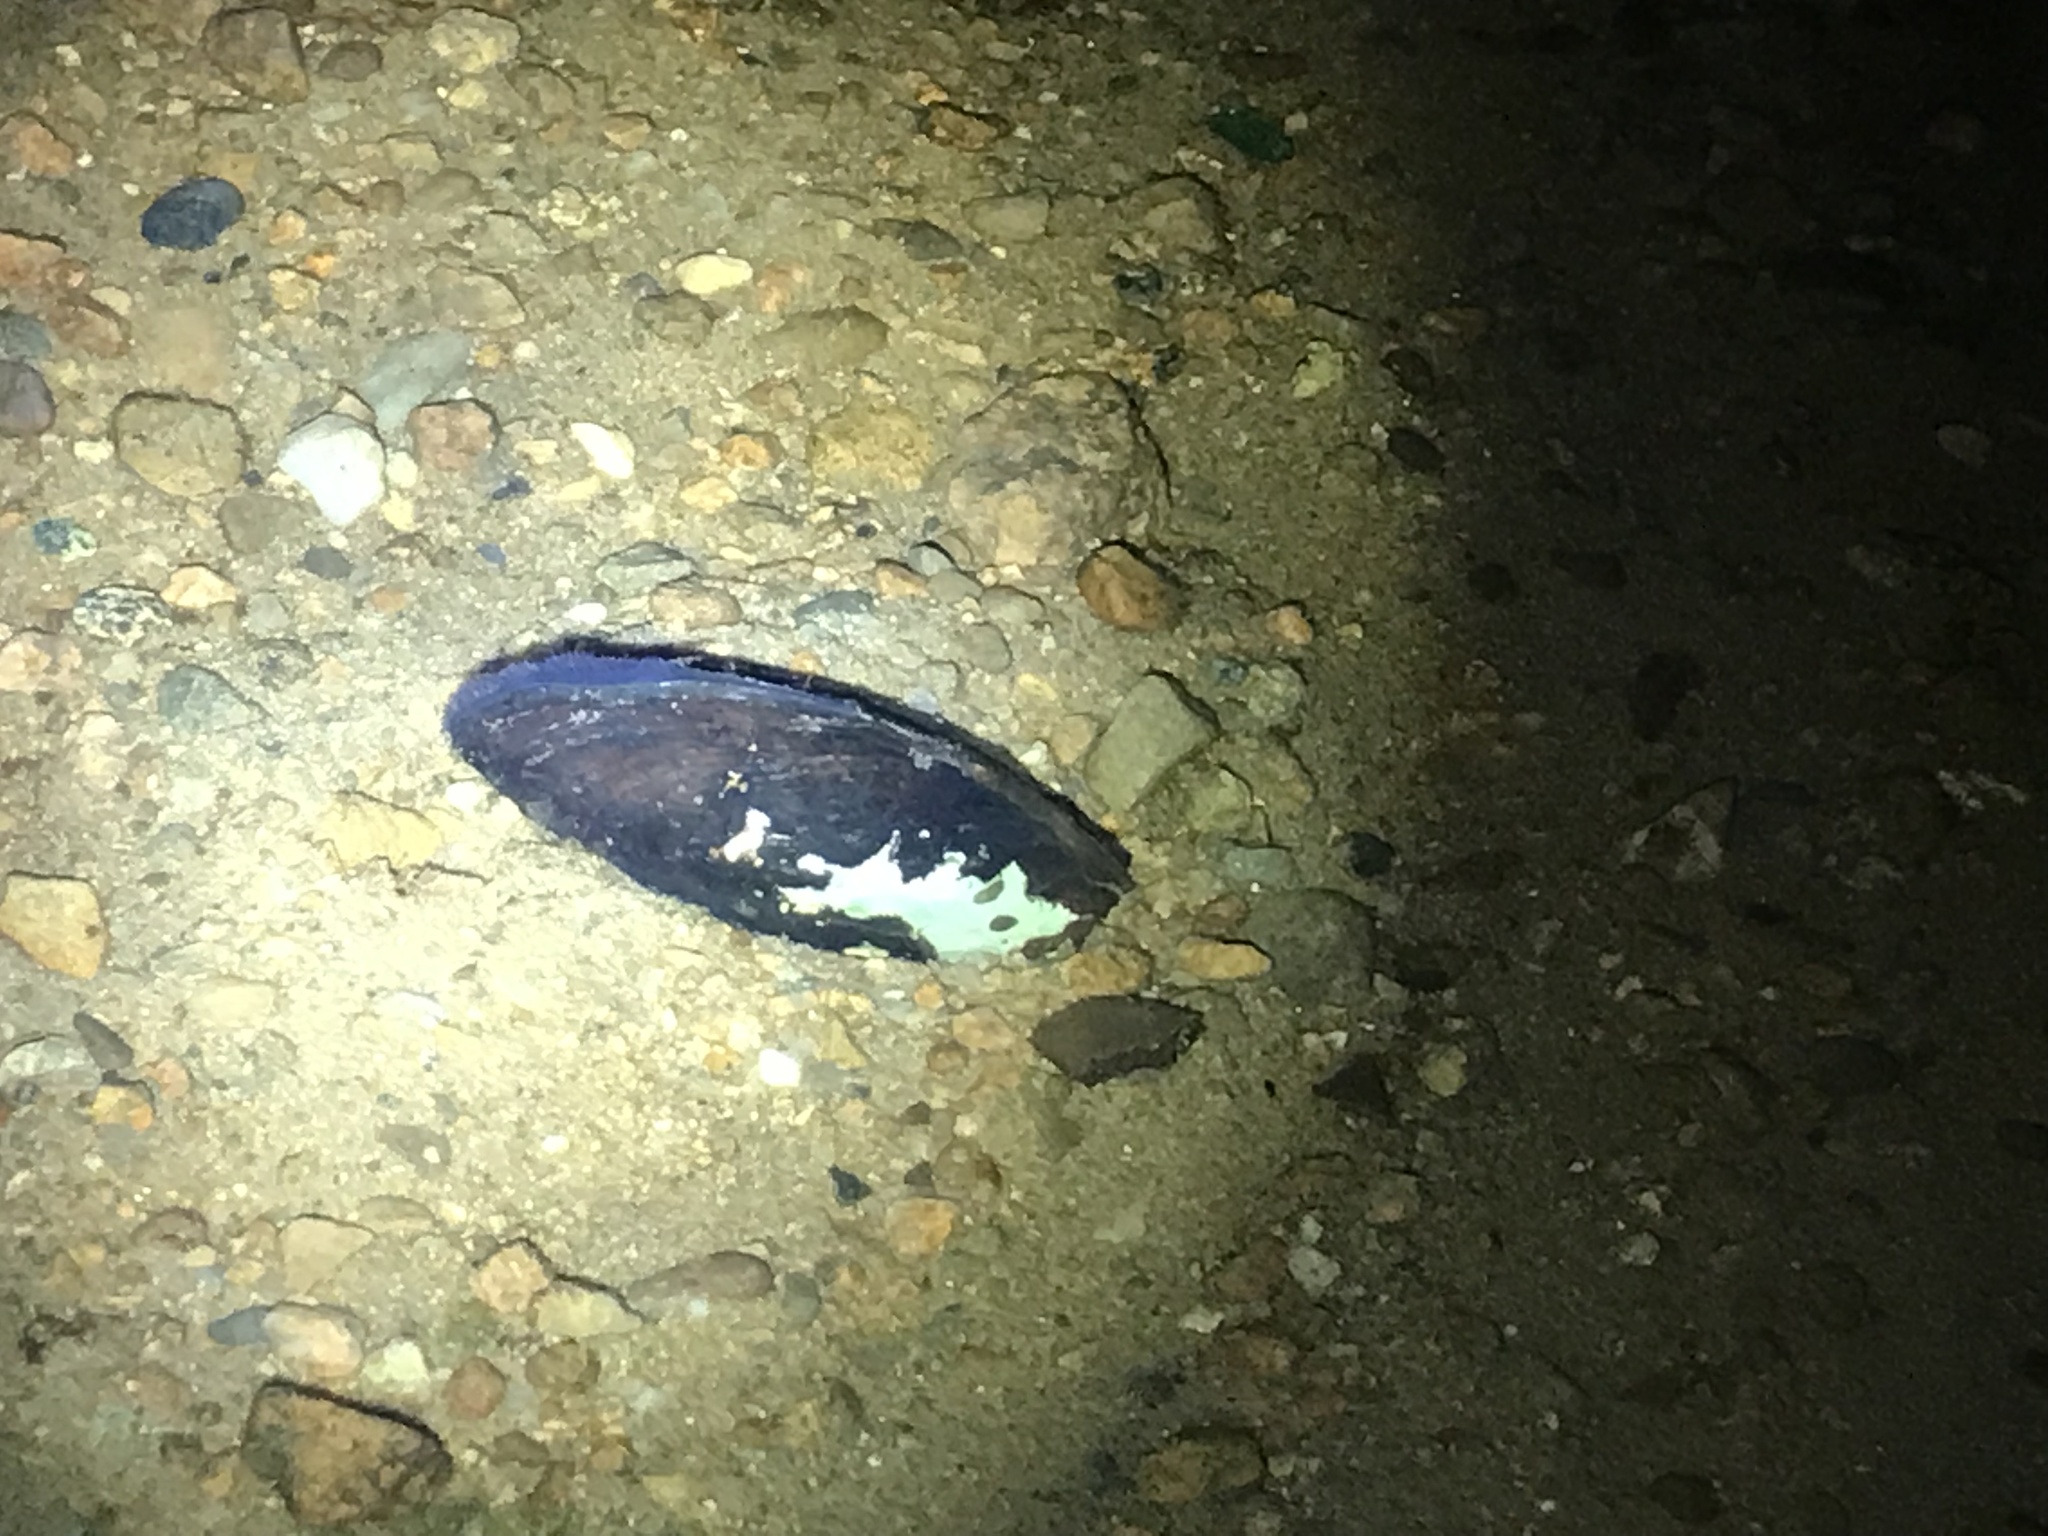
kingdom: Animalia
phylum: Mollusca
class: Bivalvia
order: Unionida
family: Unionidae
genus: Elliptio
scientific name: Elliptio complanata
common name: Eastern elliptio
